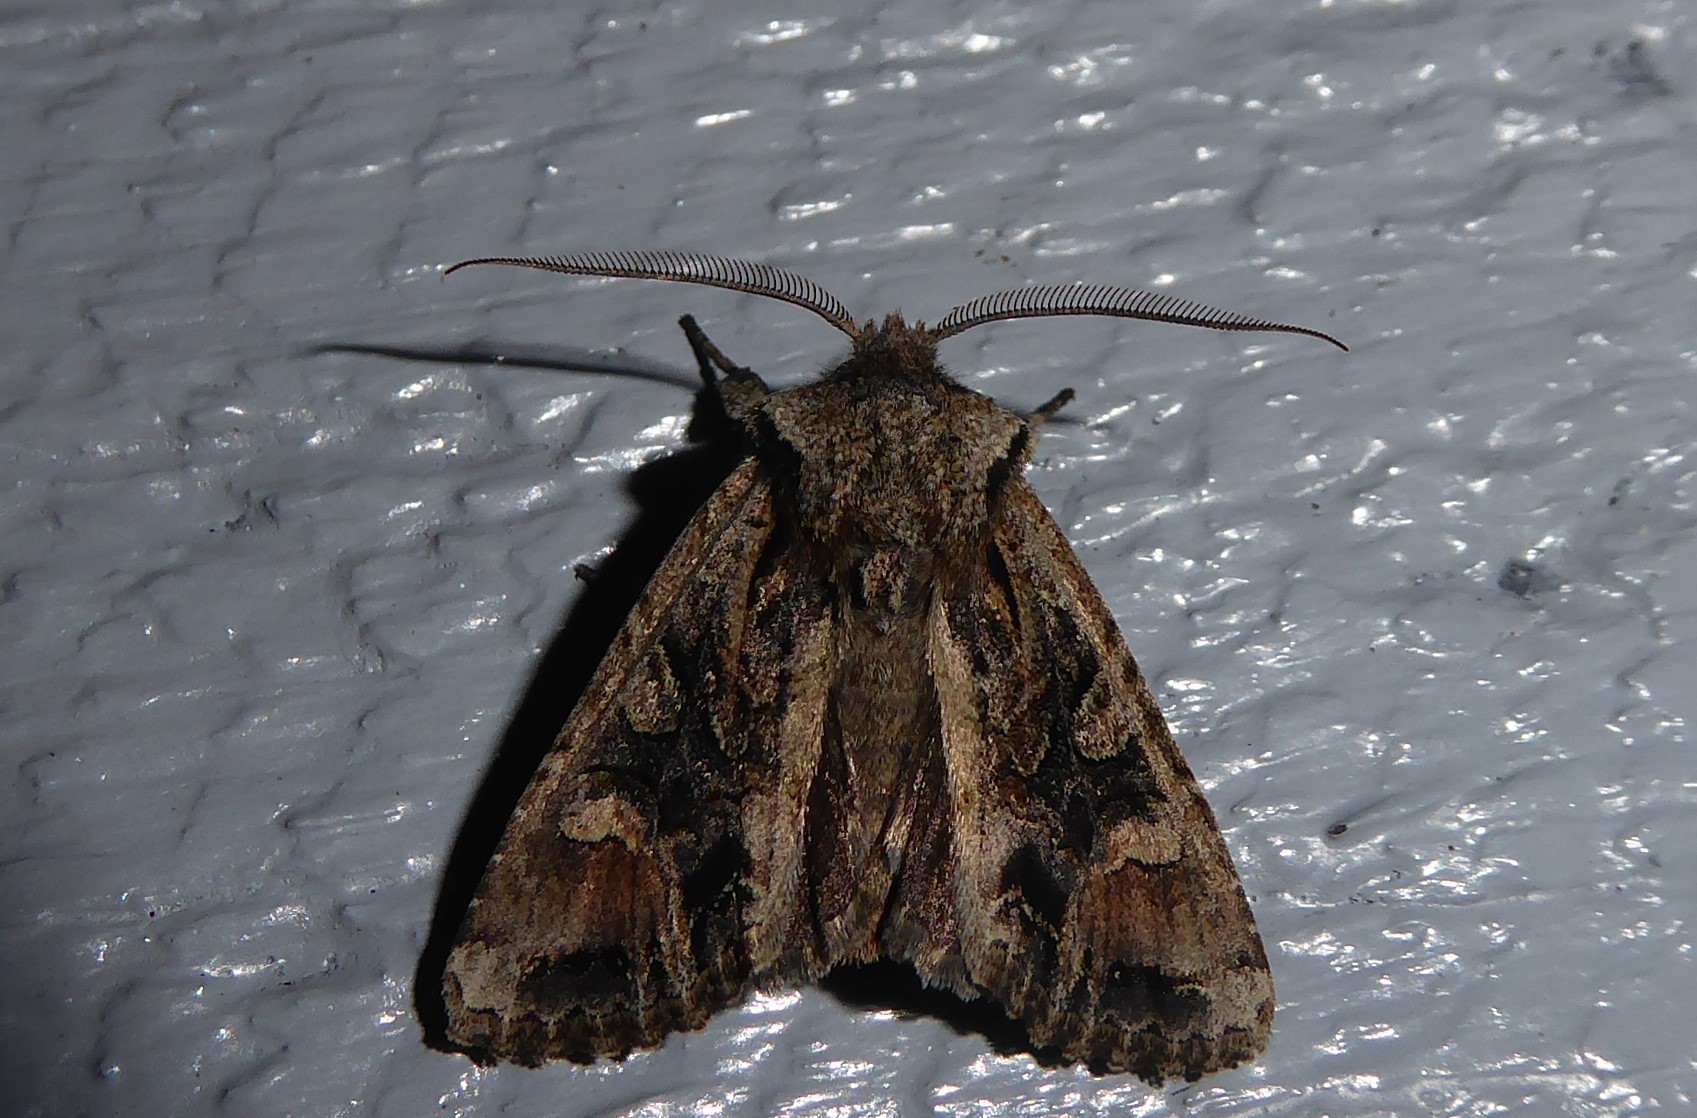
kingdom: Animalia
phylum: Arthropoda
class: Insecta
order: Lepidoptera
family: Noctuidae
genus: Ichneutica
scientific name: Ichneutica
